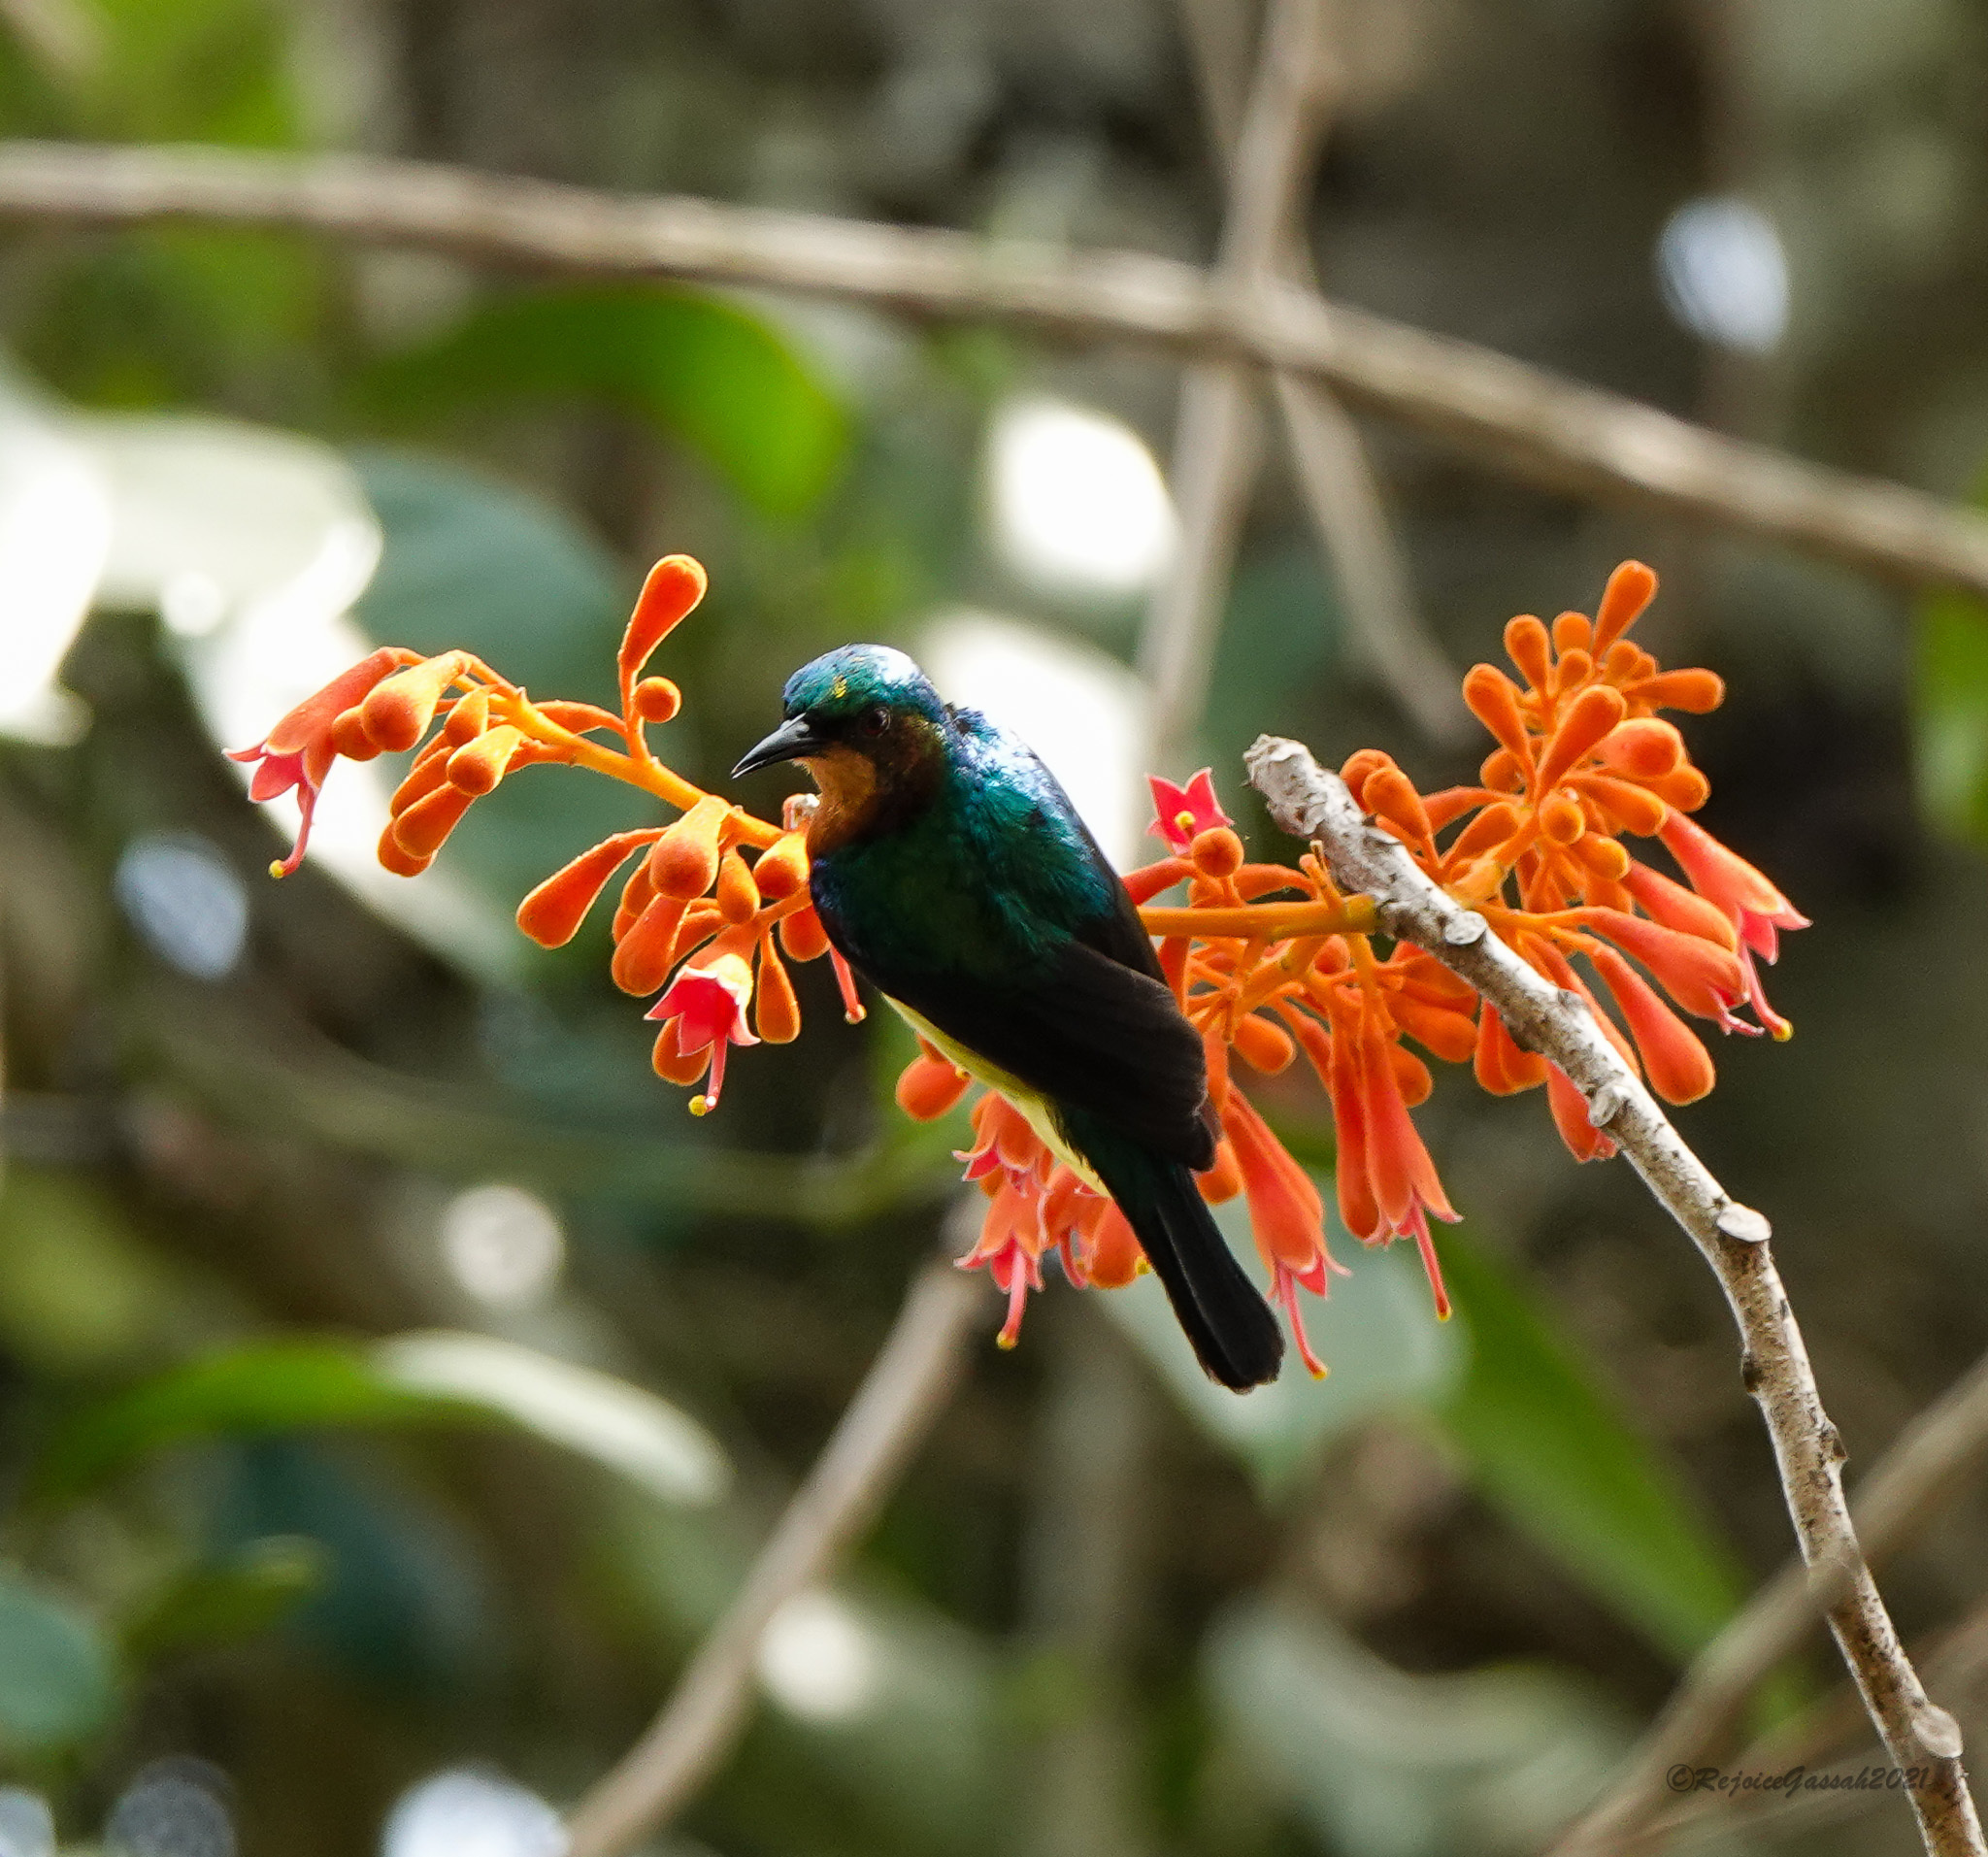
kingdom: Animalia
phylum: Chordata
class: Aves
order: Passeriformes
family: Nectariniidae
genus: Chalcoparia
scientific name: Chalcoparia singalensis
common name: Ruby-cheeked sunbird
